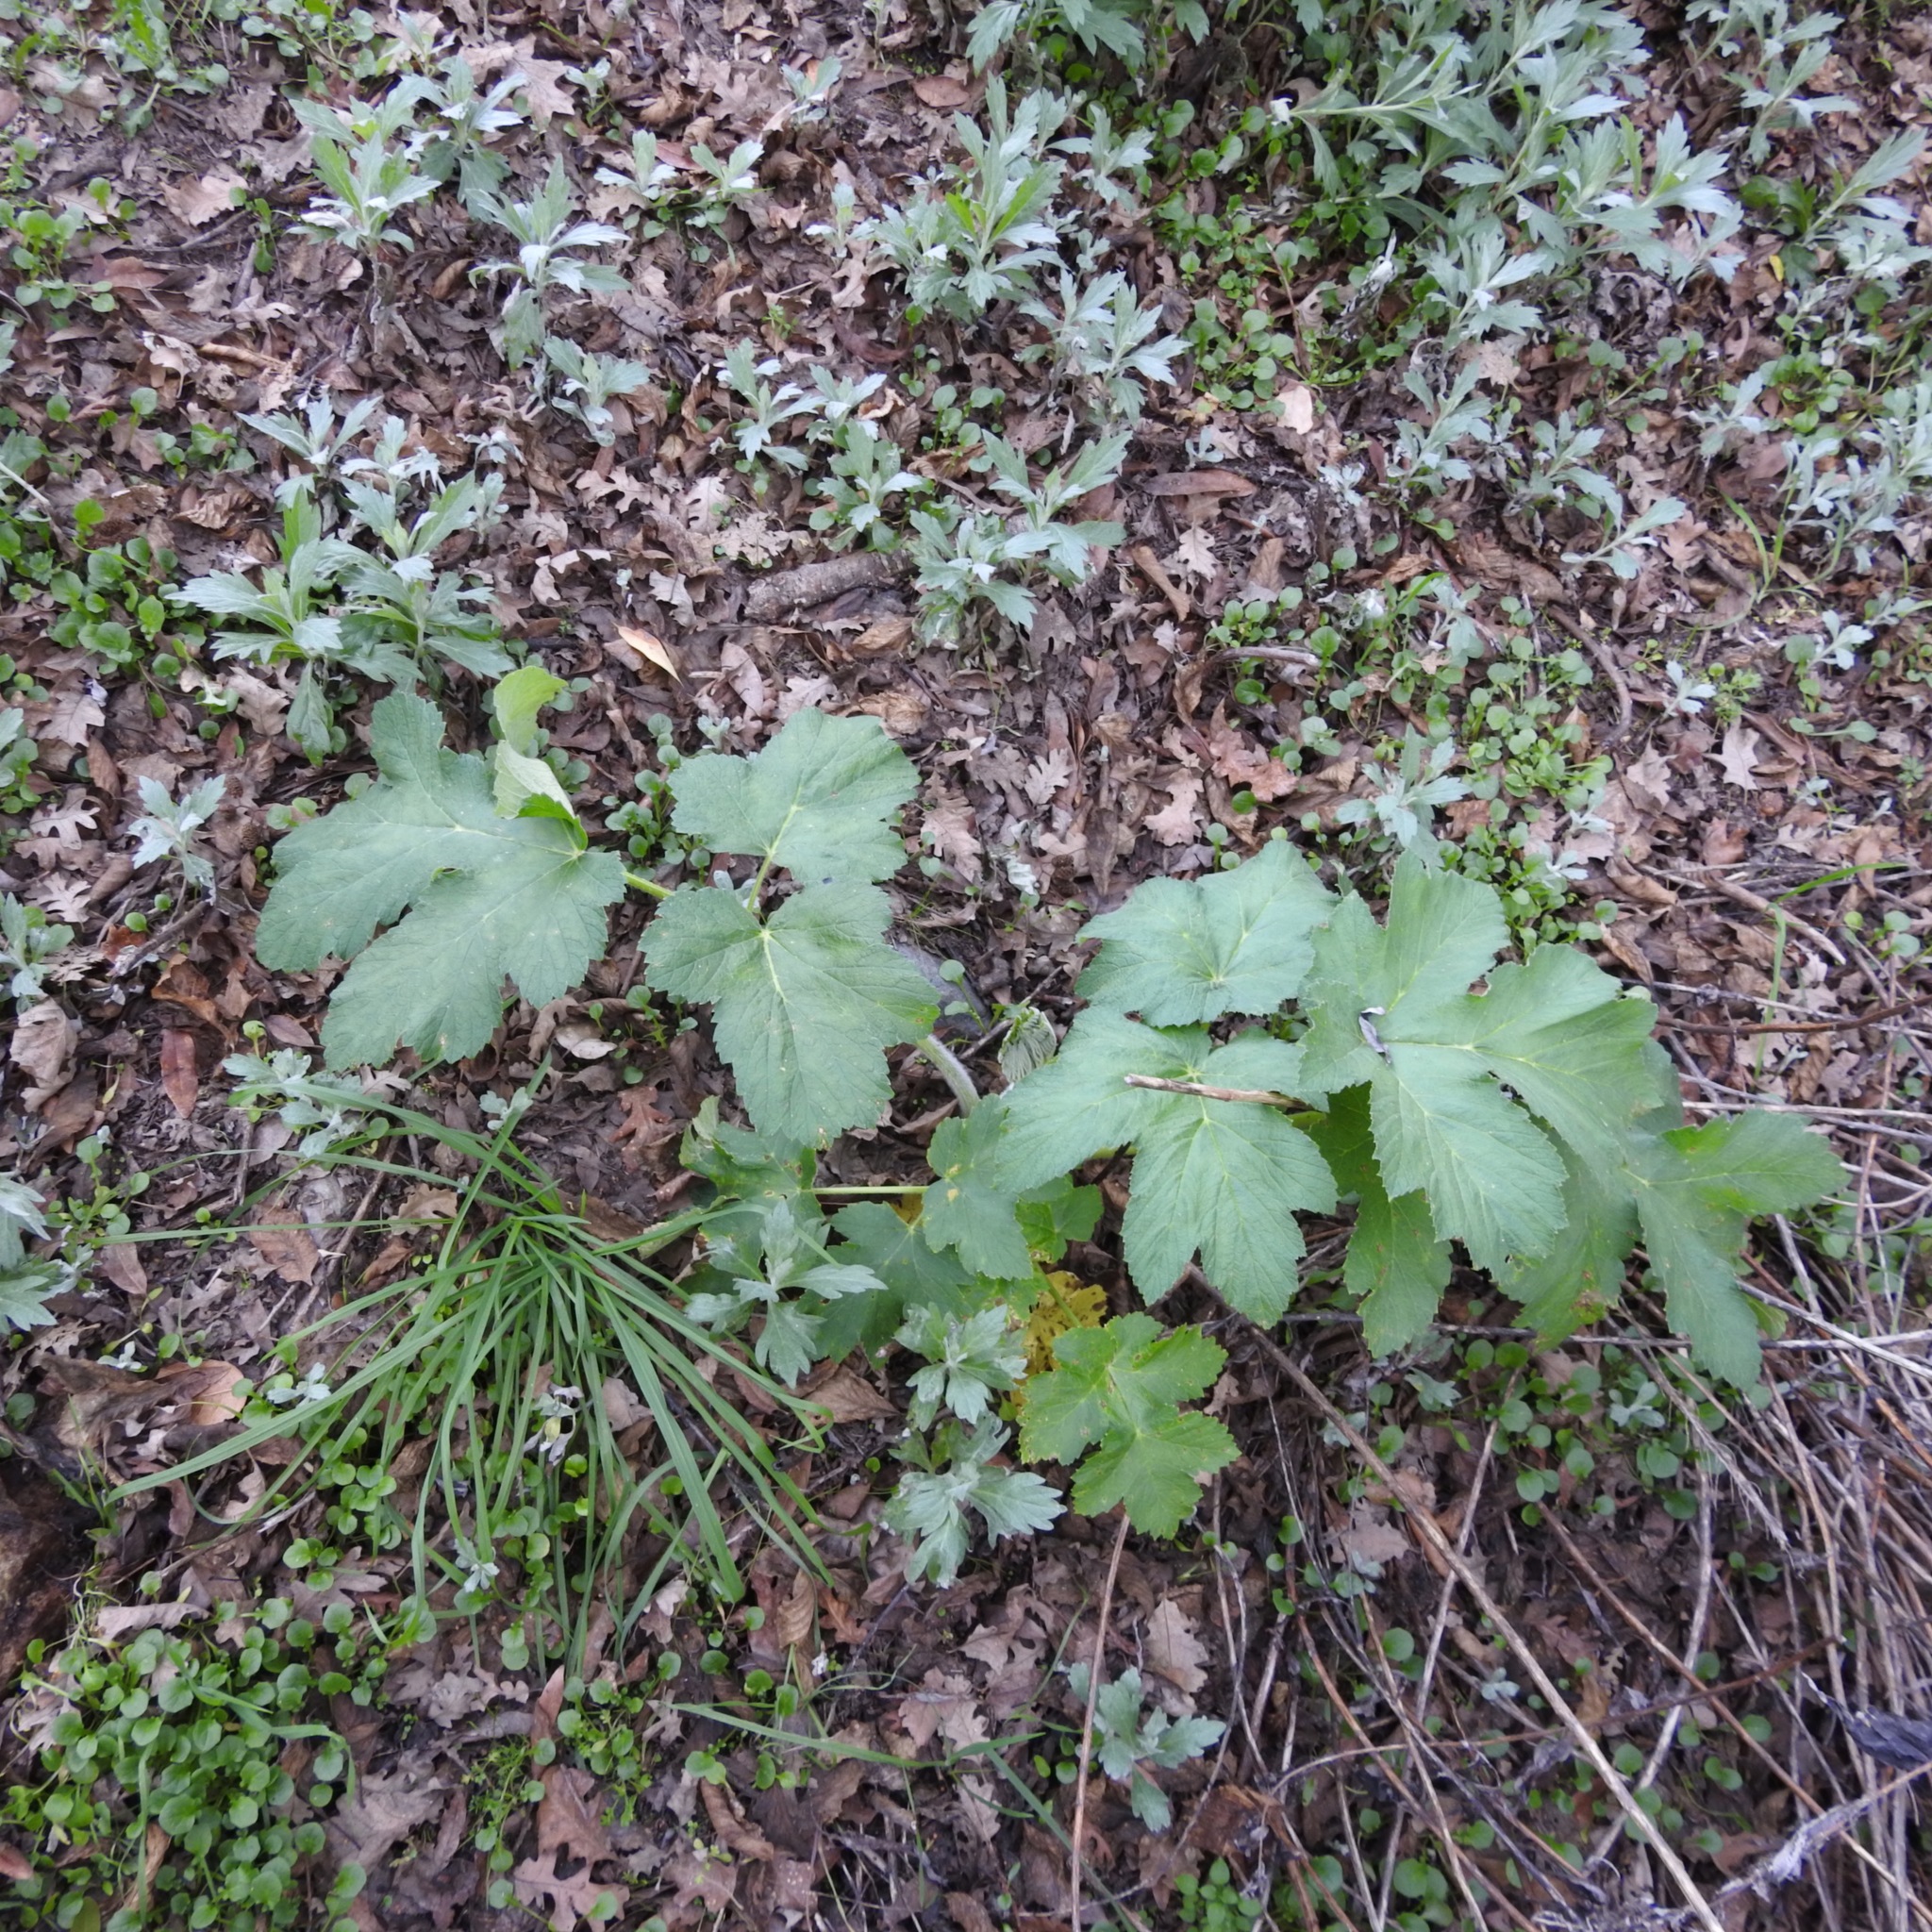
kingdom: Plantae
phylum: Tracheophyta
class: Magnoliopsida
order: Apiales
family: Apiaceae
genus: Heracleum
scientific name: Heracleum maximum
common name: American cow parsnip
